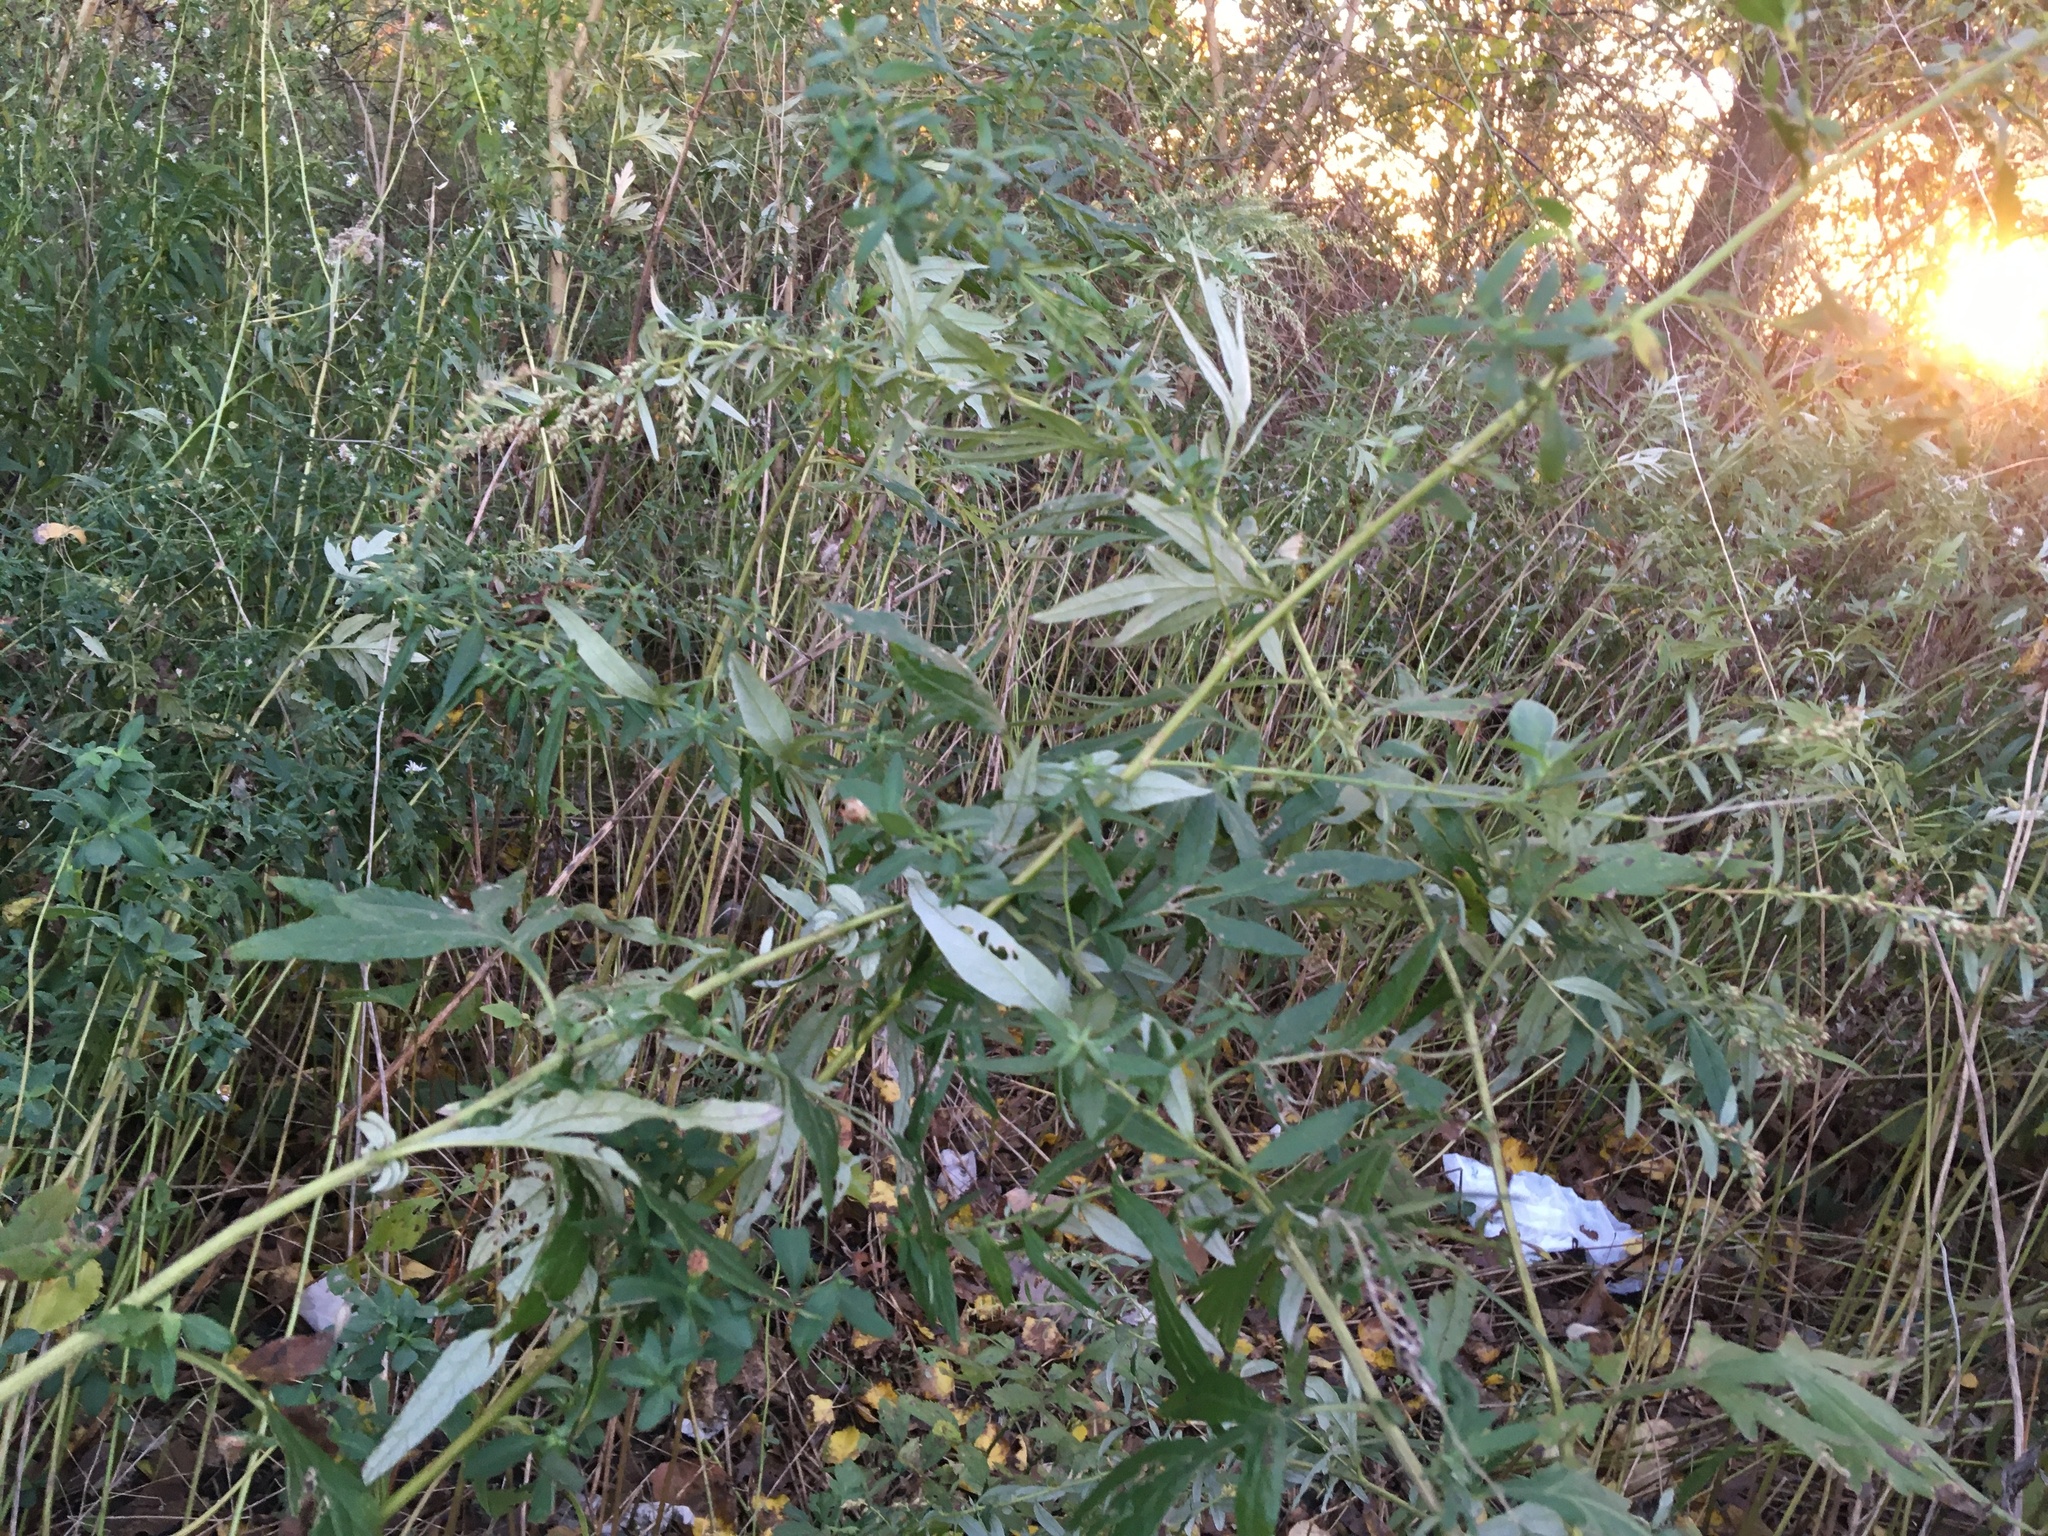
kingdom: Plantae
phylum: Tracheophyta
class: Magnoliopsida
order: Asterales
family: Asteraceae
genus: Artemisia
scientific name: Artemisia vulgaris
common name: Mugwort
